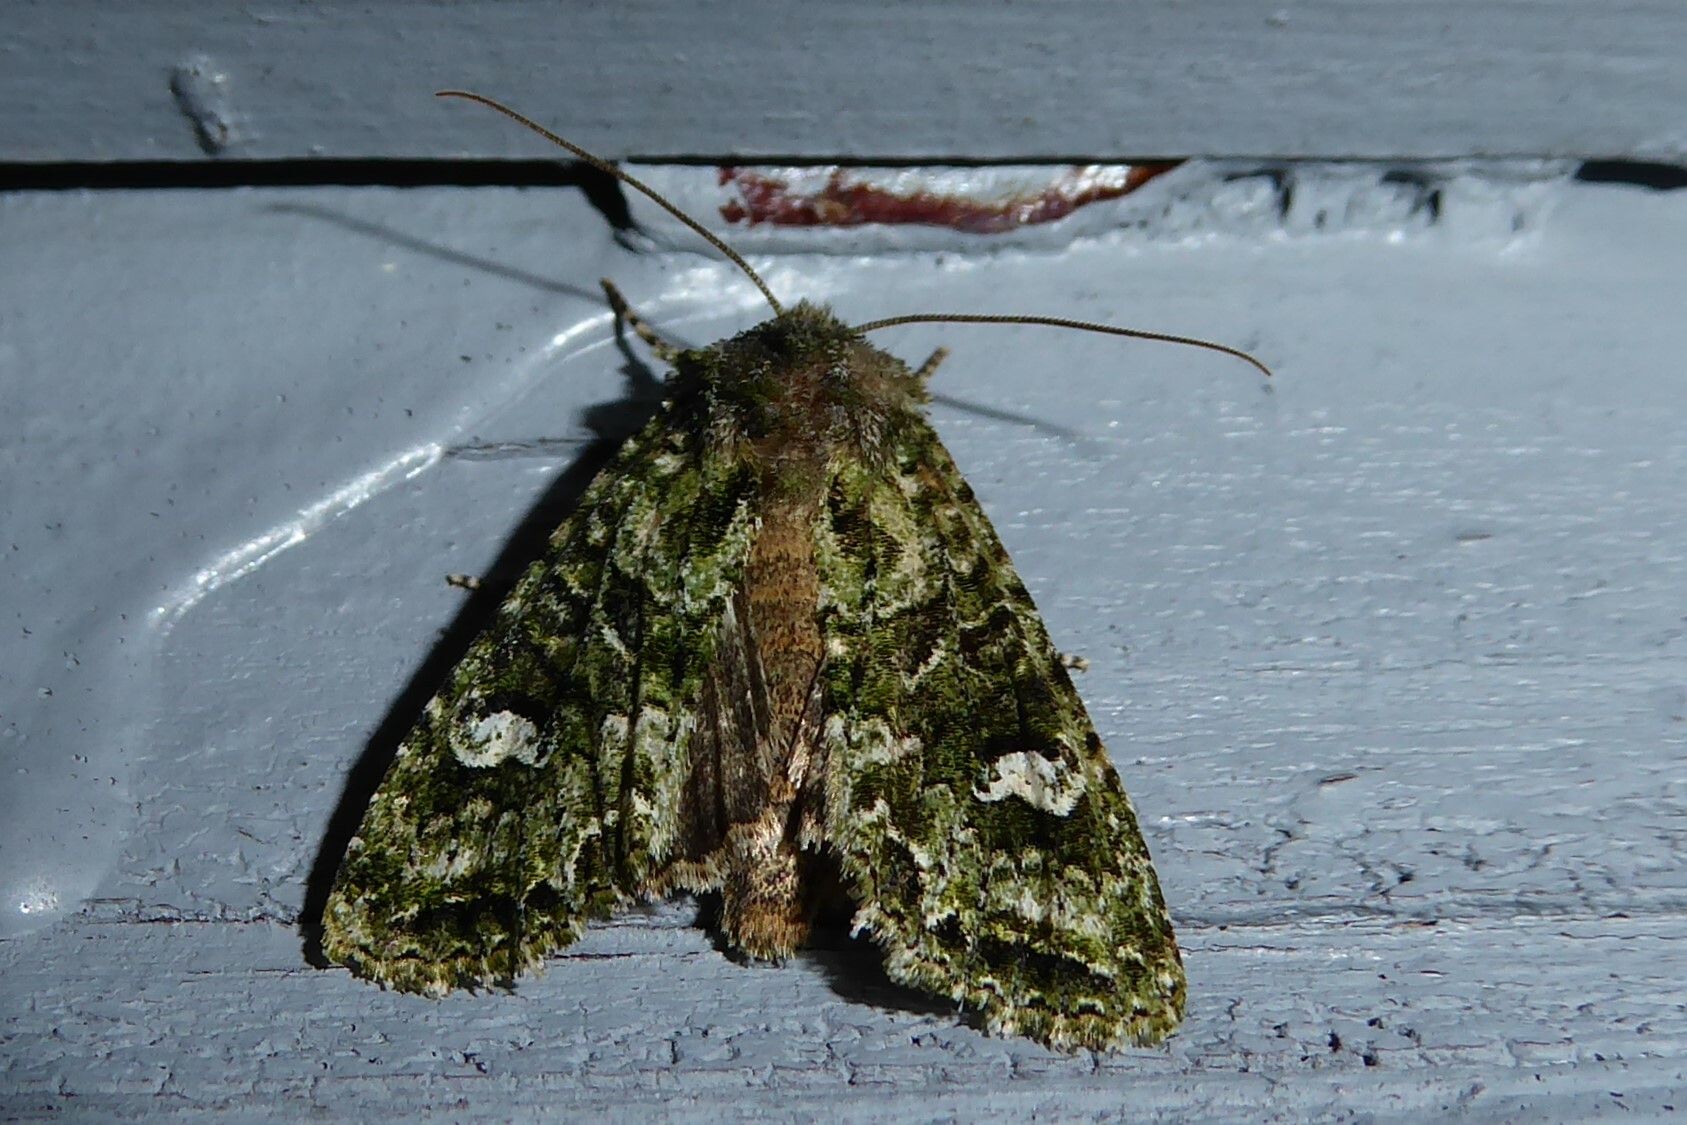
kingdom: Animalia
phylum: Arthropoda
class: Insecta
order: Lepidoptera
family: Noctuidae
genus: Ichneutica
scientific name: Ichneutica
